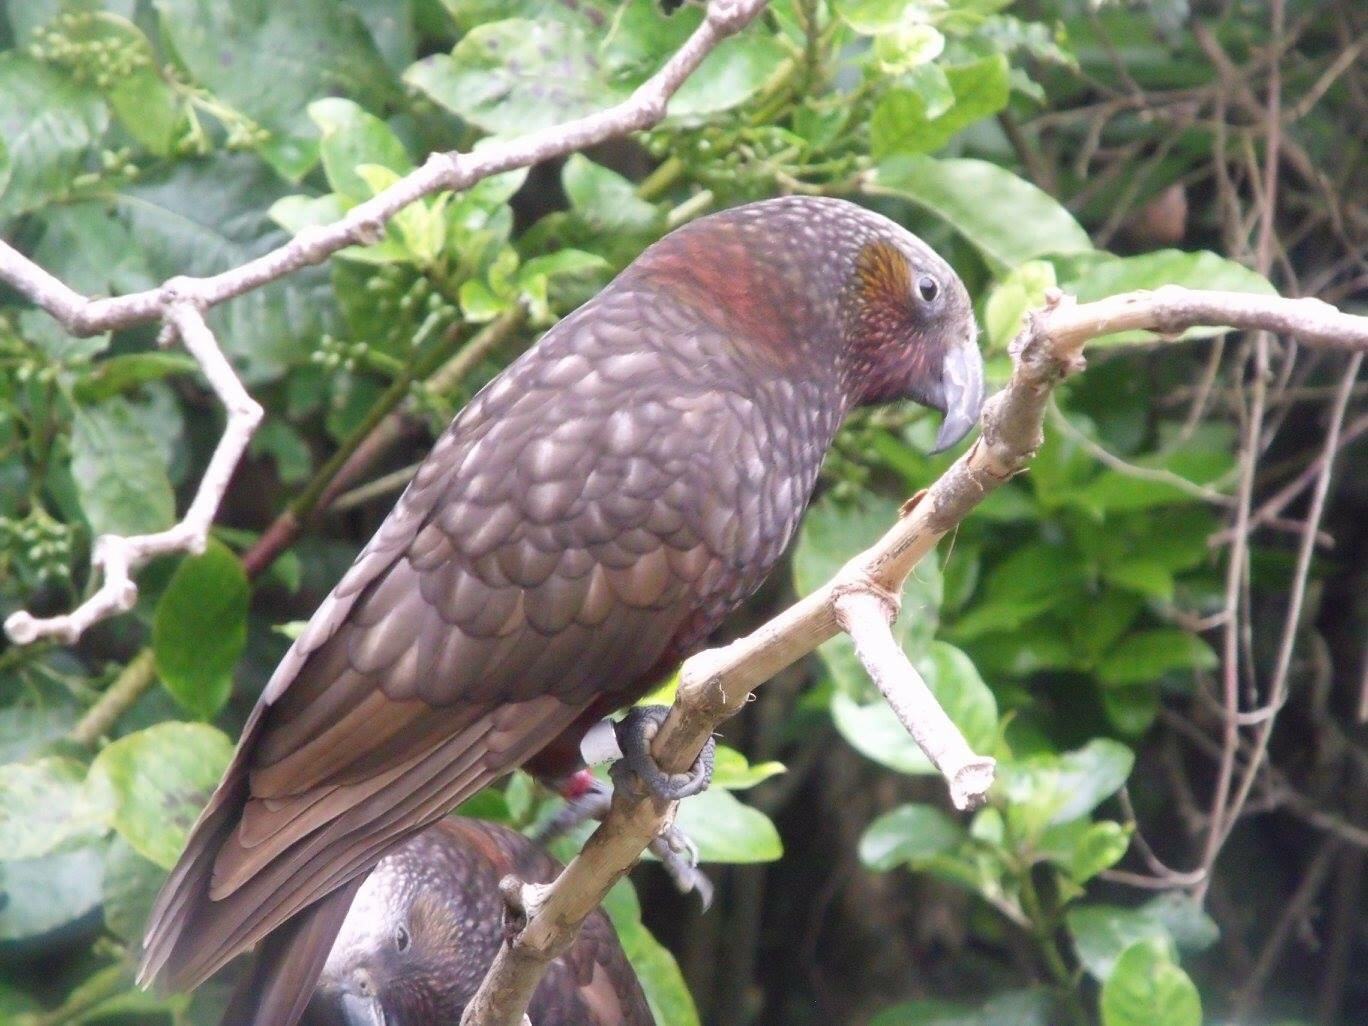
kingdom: Animalia
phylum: Chordata
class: Aves
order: Psittaciformes
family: Psittacidae
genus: Nestor
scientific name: Nestor meridionalis
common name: New zealand kaka
